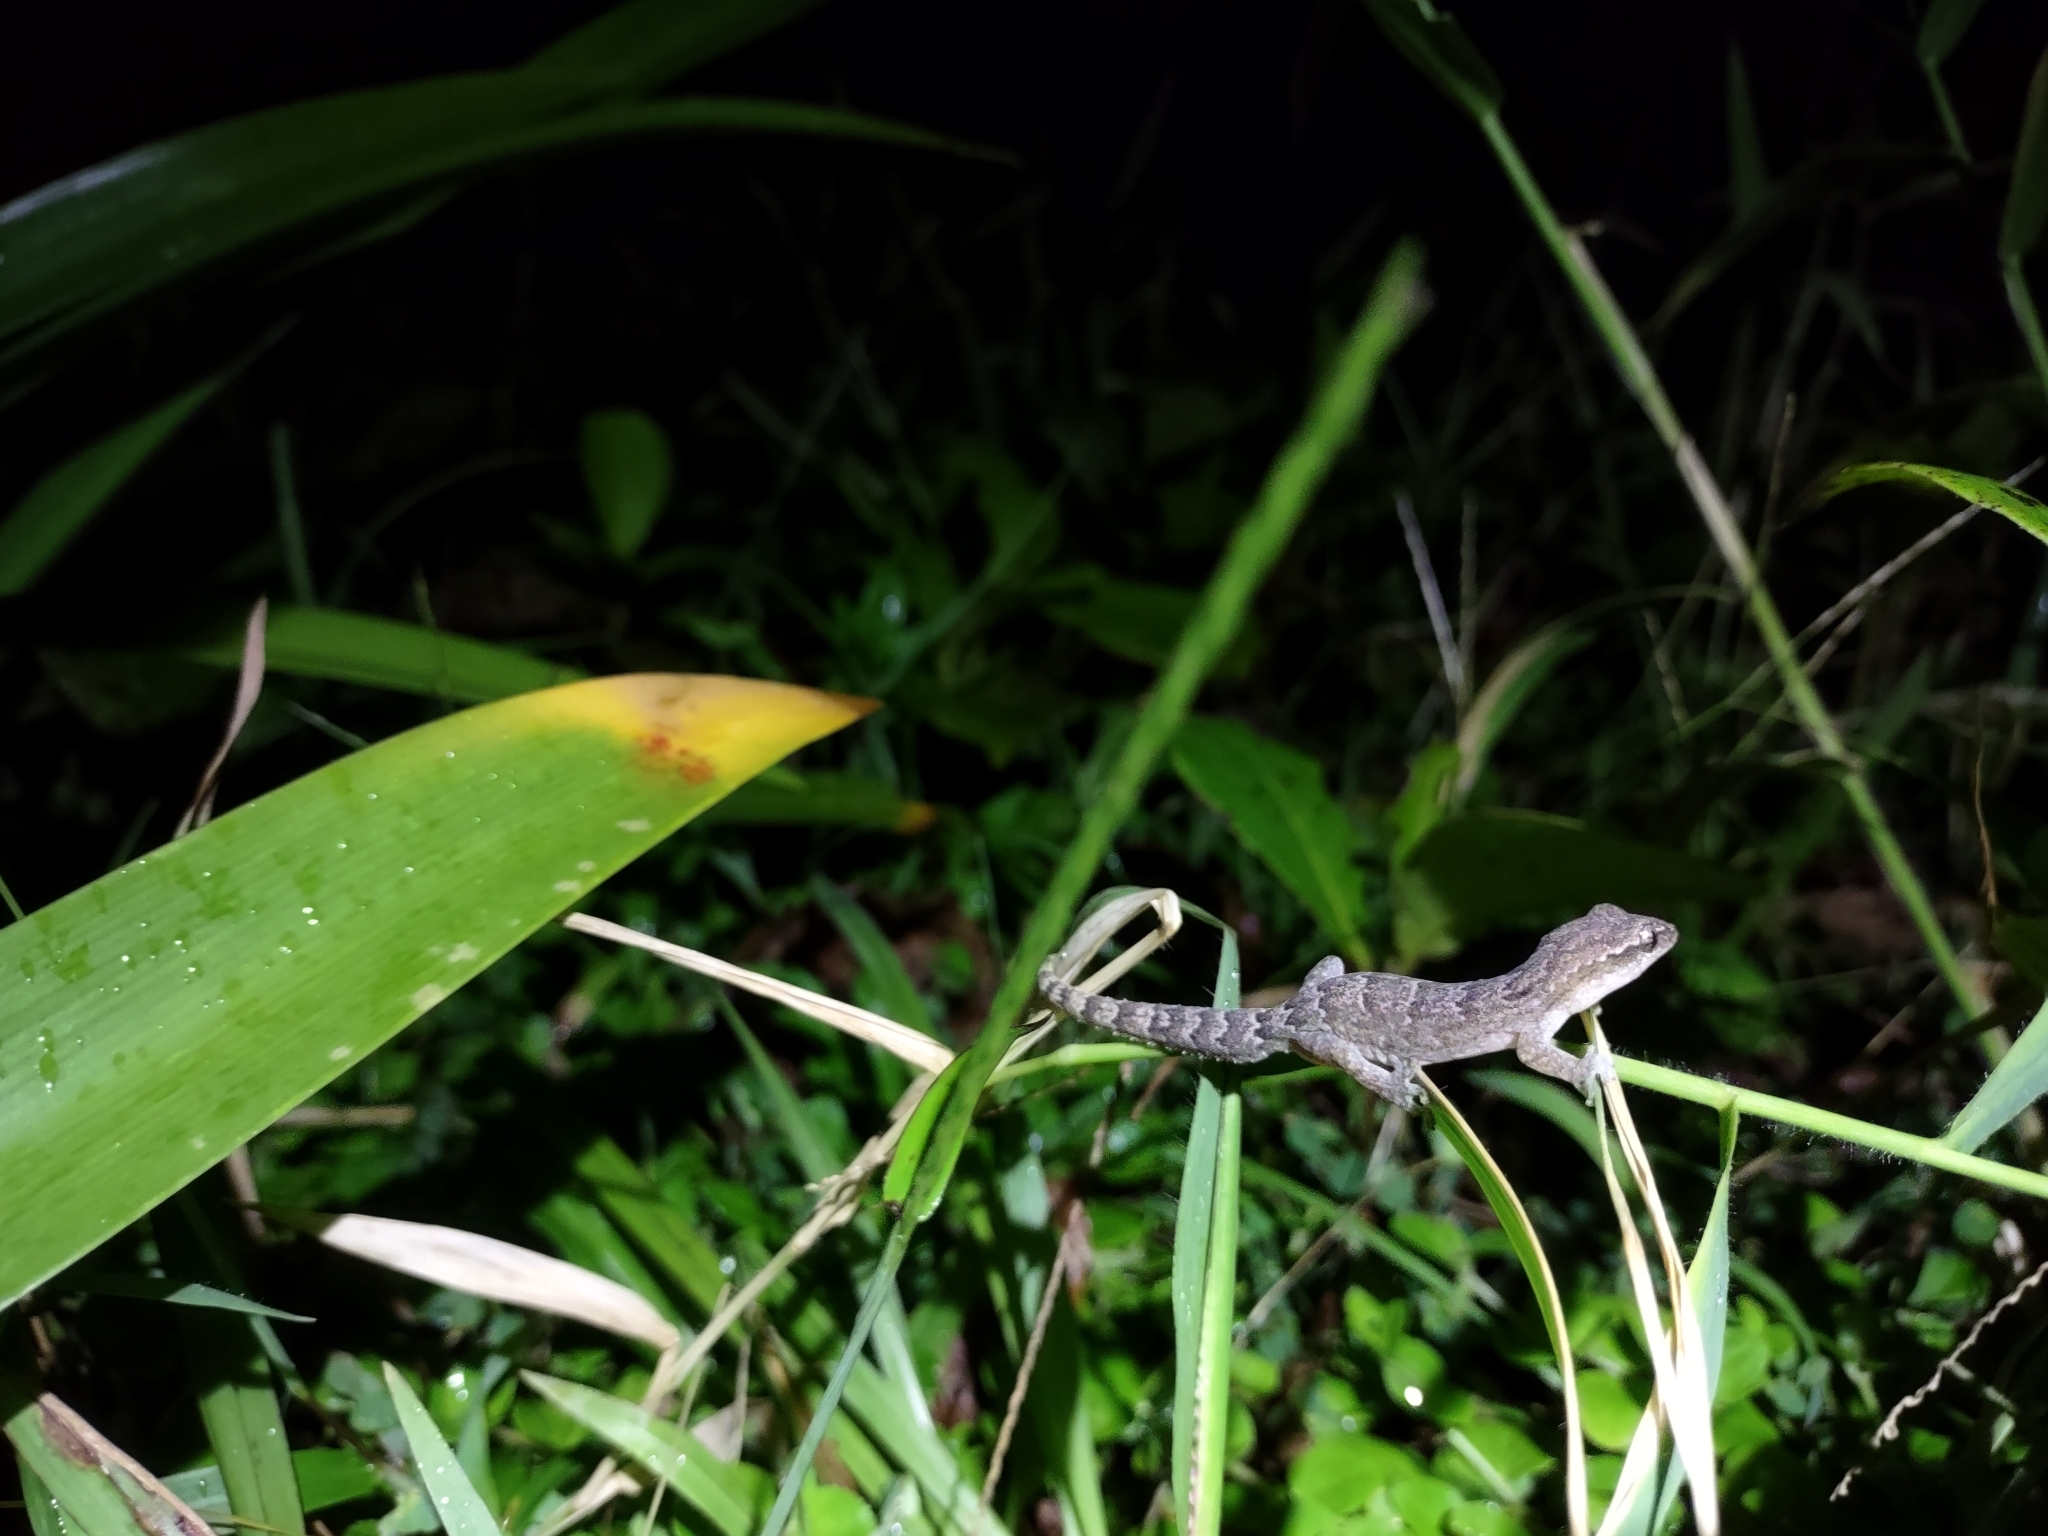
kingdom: Animalia
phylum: Chordata
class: Squamata
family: Gekkonidae
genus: Lepidodactylus
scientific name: Lepidodactylus lugubris
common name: Mourning gecko
